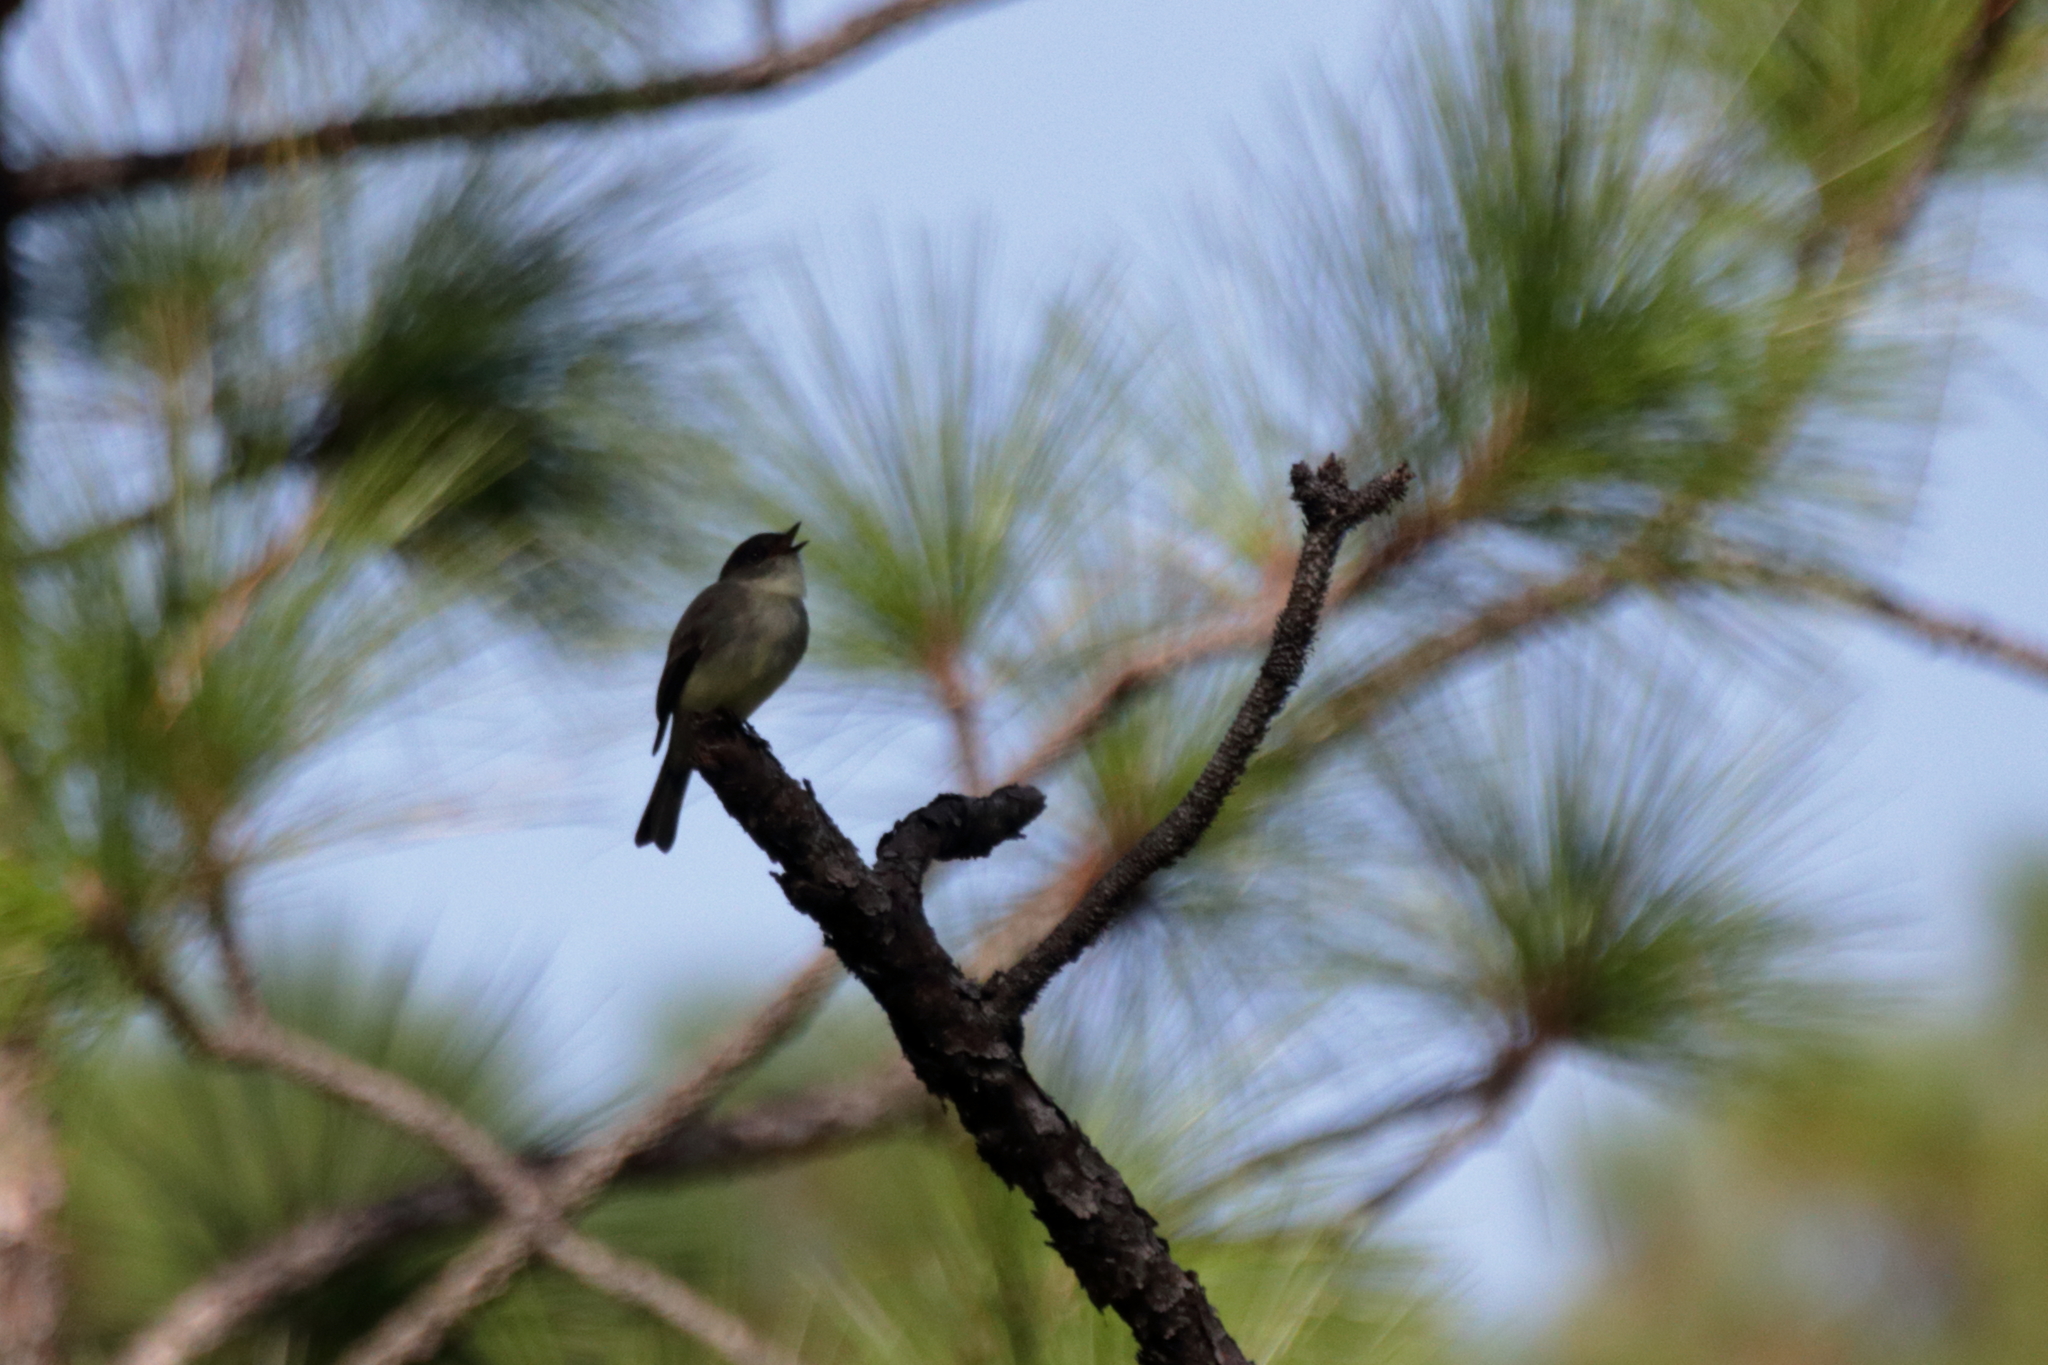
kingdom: Animalia
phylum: Chordata
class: Aves
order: Passeriformes
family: Tyrannidae
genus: Sayornis
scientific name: Sayornis phoebe
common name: Eastern phoebe
